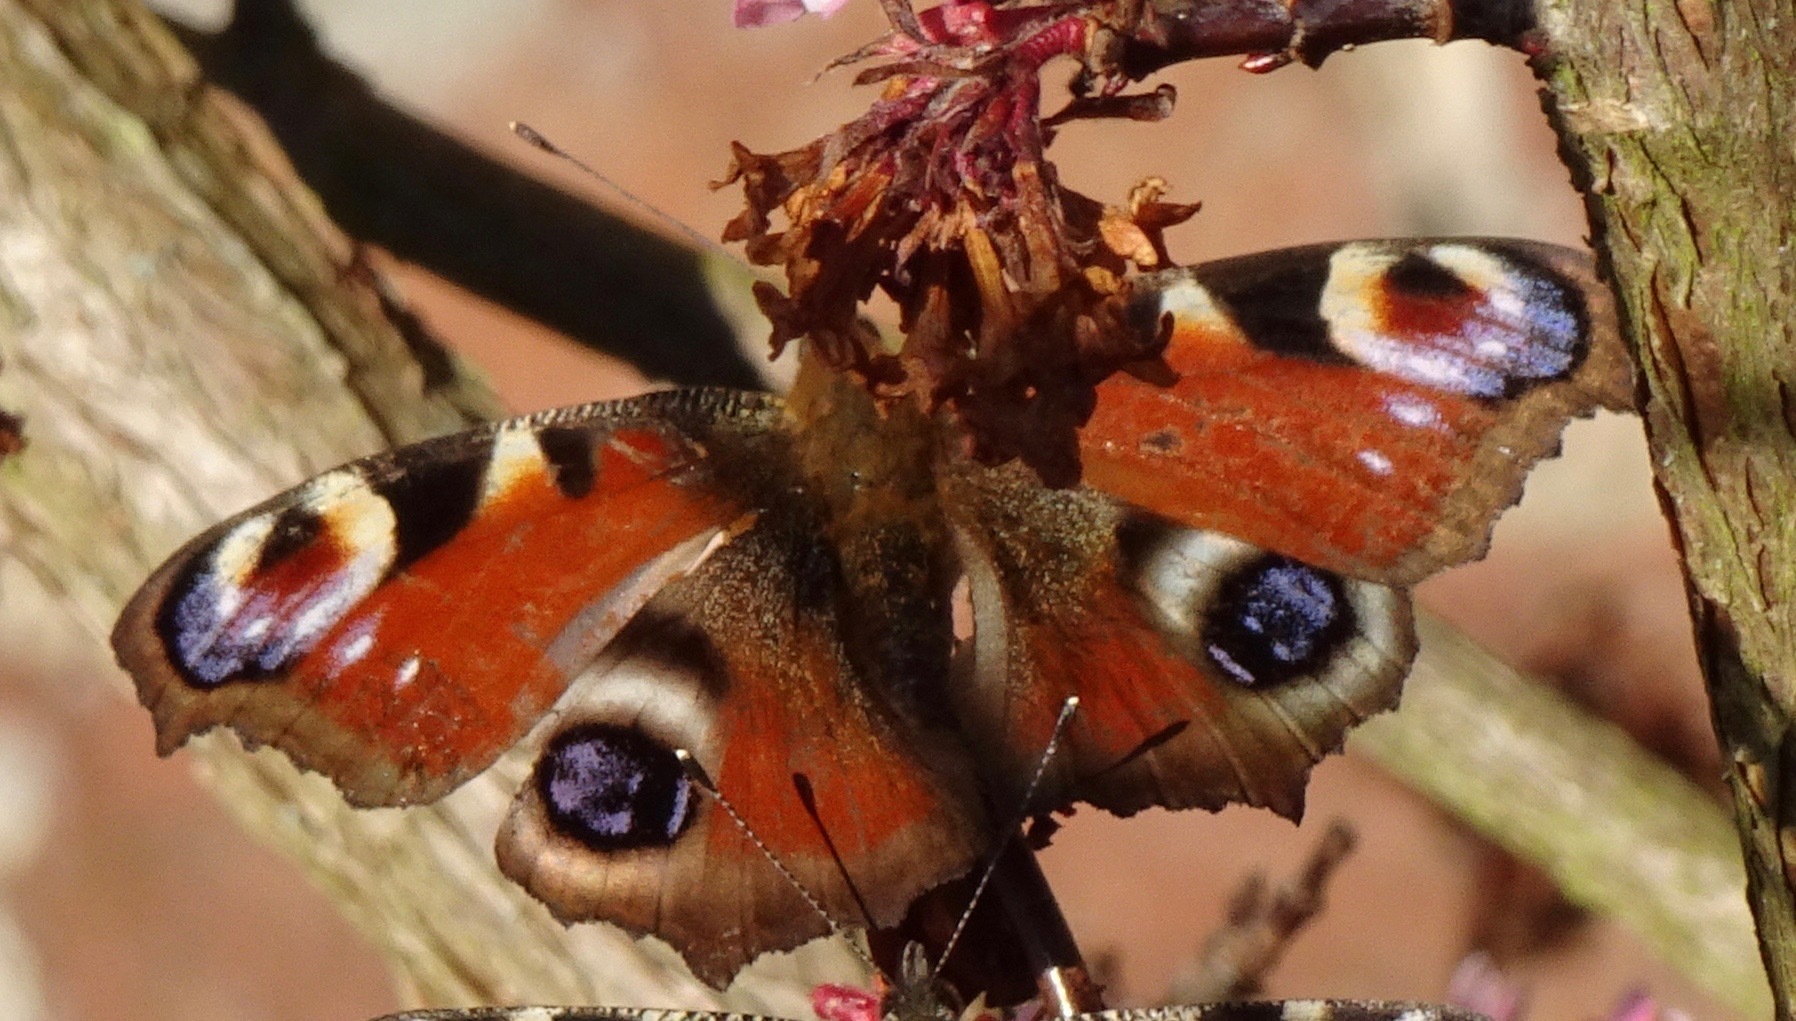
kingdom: Animalia
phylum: Arthropoda
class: Insecta
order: Lepidoptera
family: Nymphalidae
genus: Aglais
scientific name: Aglais io
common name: Peacock
